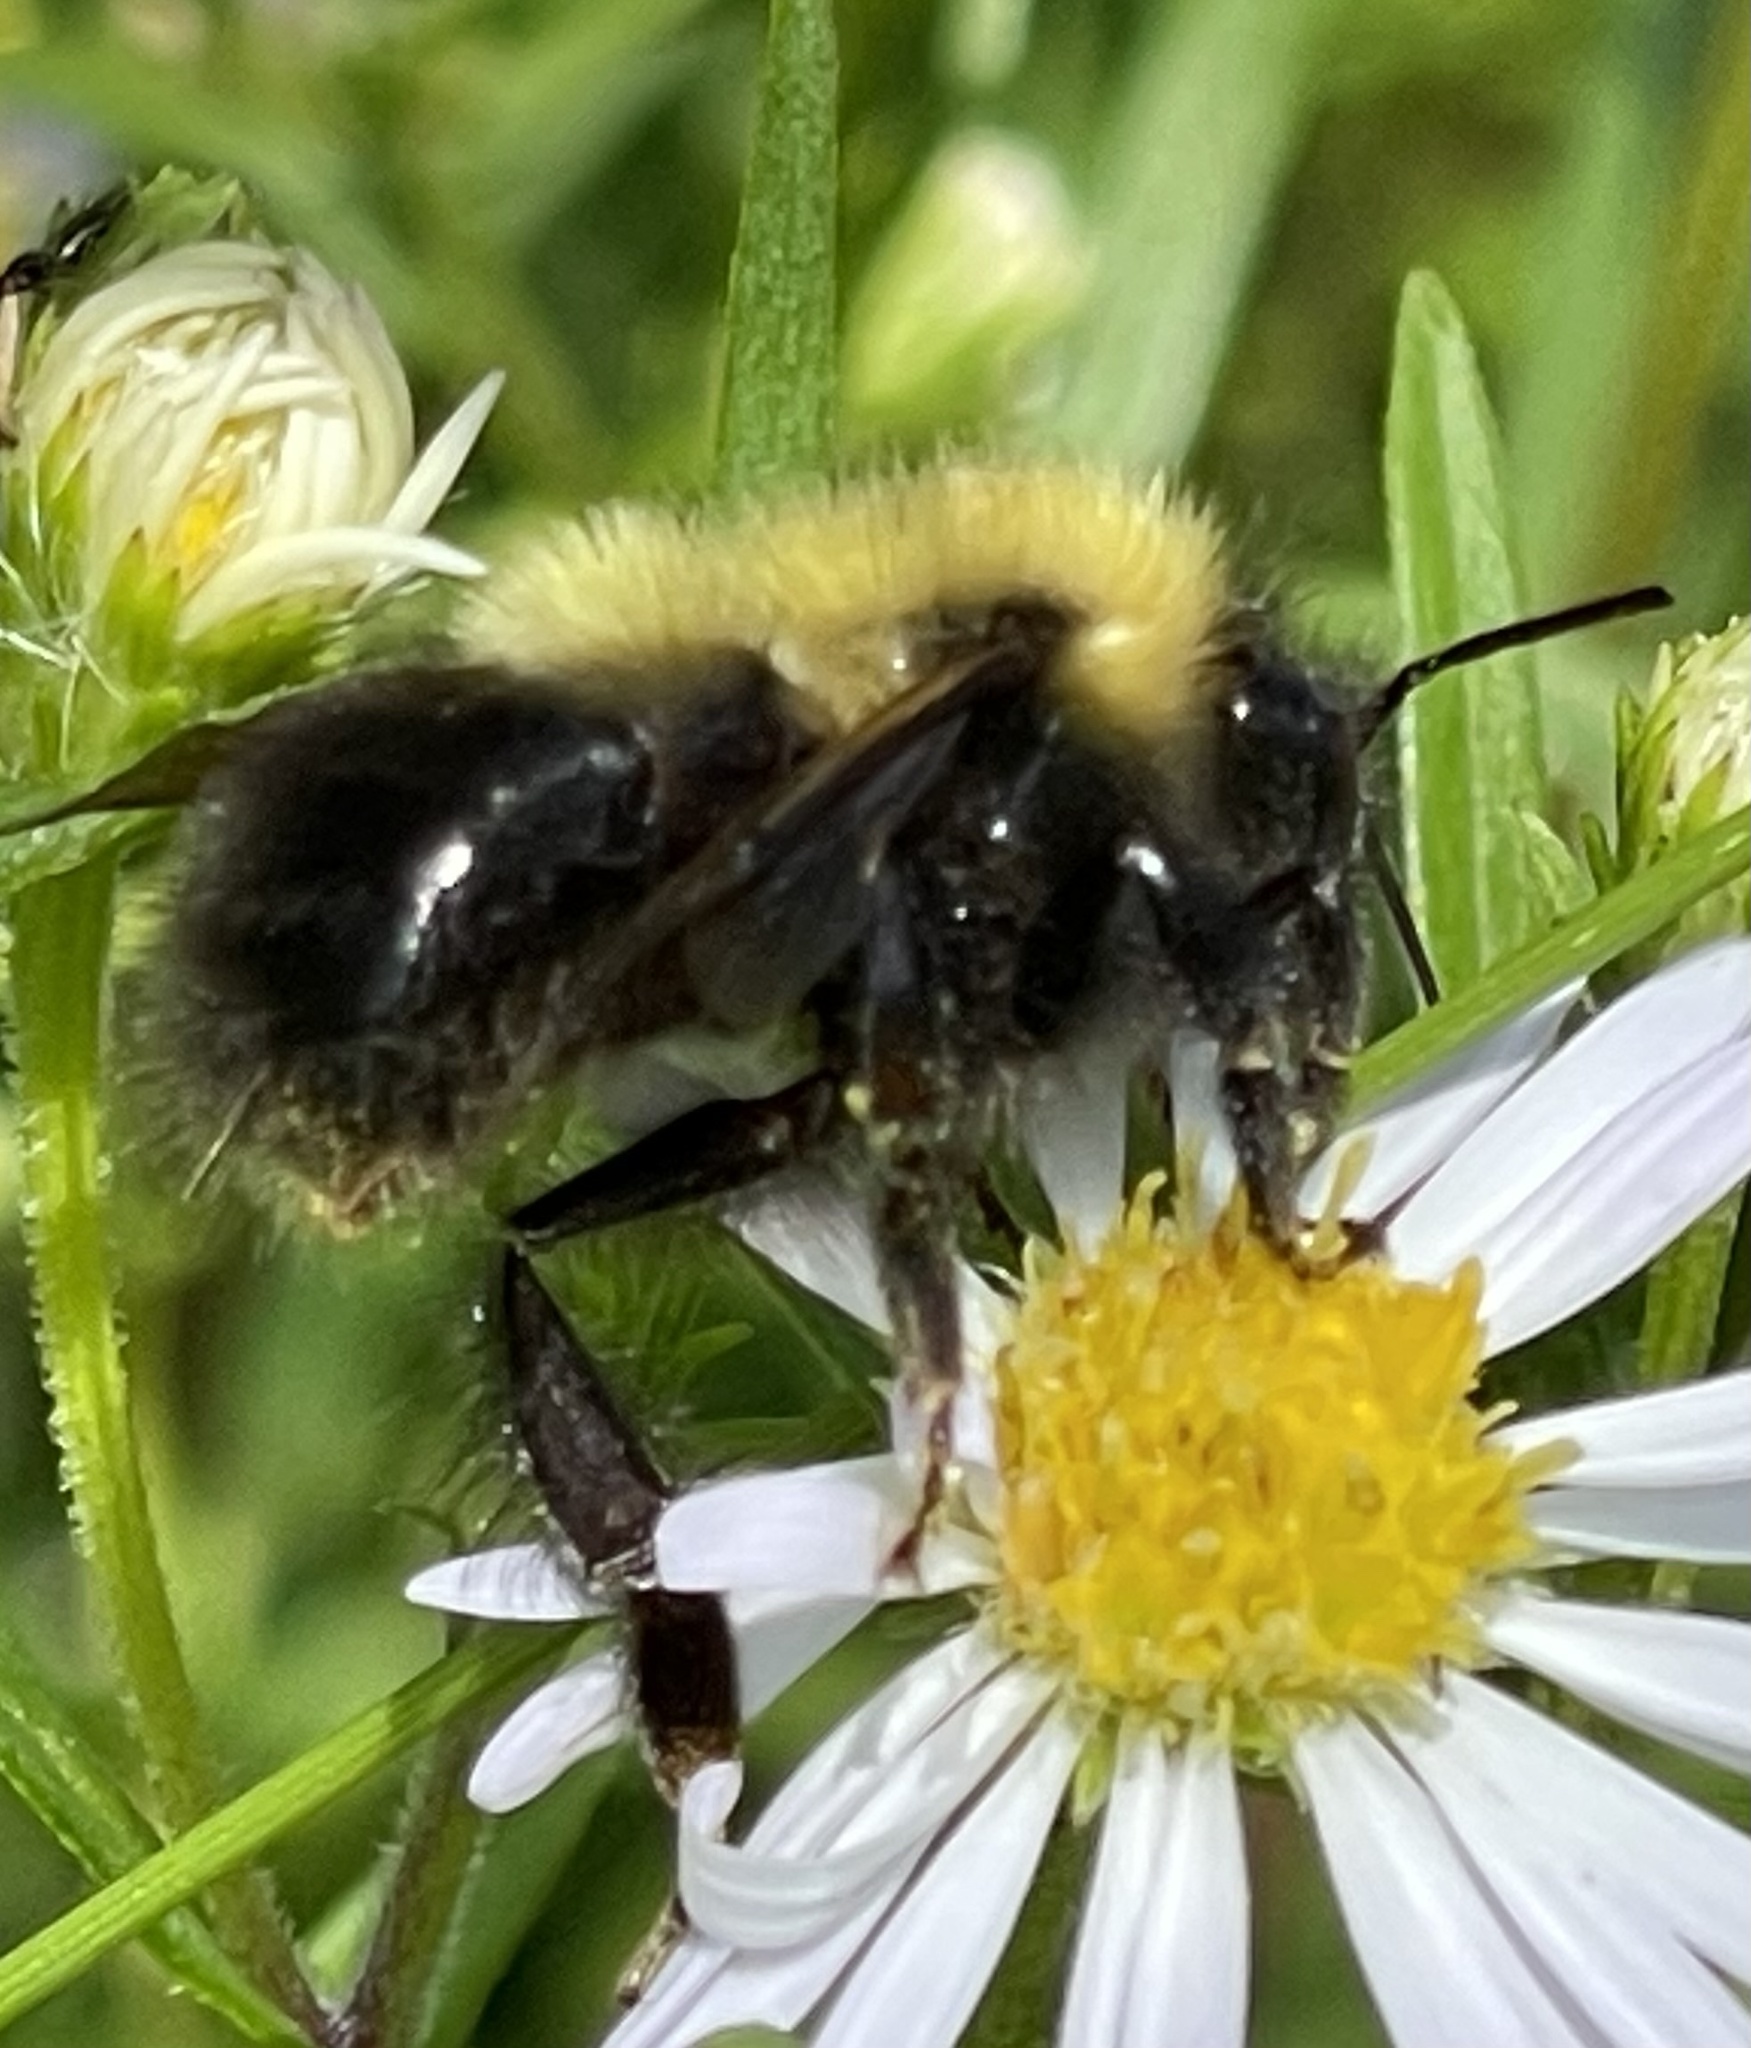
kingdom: Animalia
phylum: Arthropoda
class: Insecta
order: Hymenoptera
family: Apidae
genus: Bombus
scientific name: Bombus perplexus
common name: Confusing bumble bee
